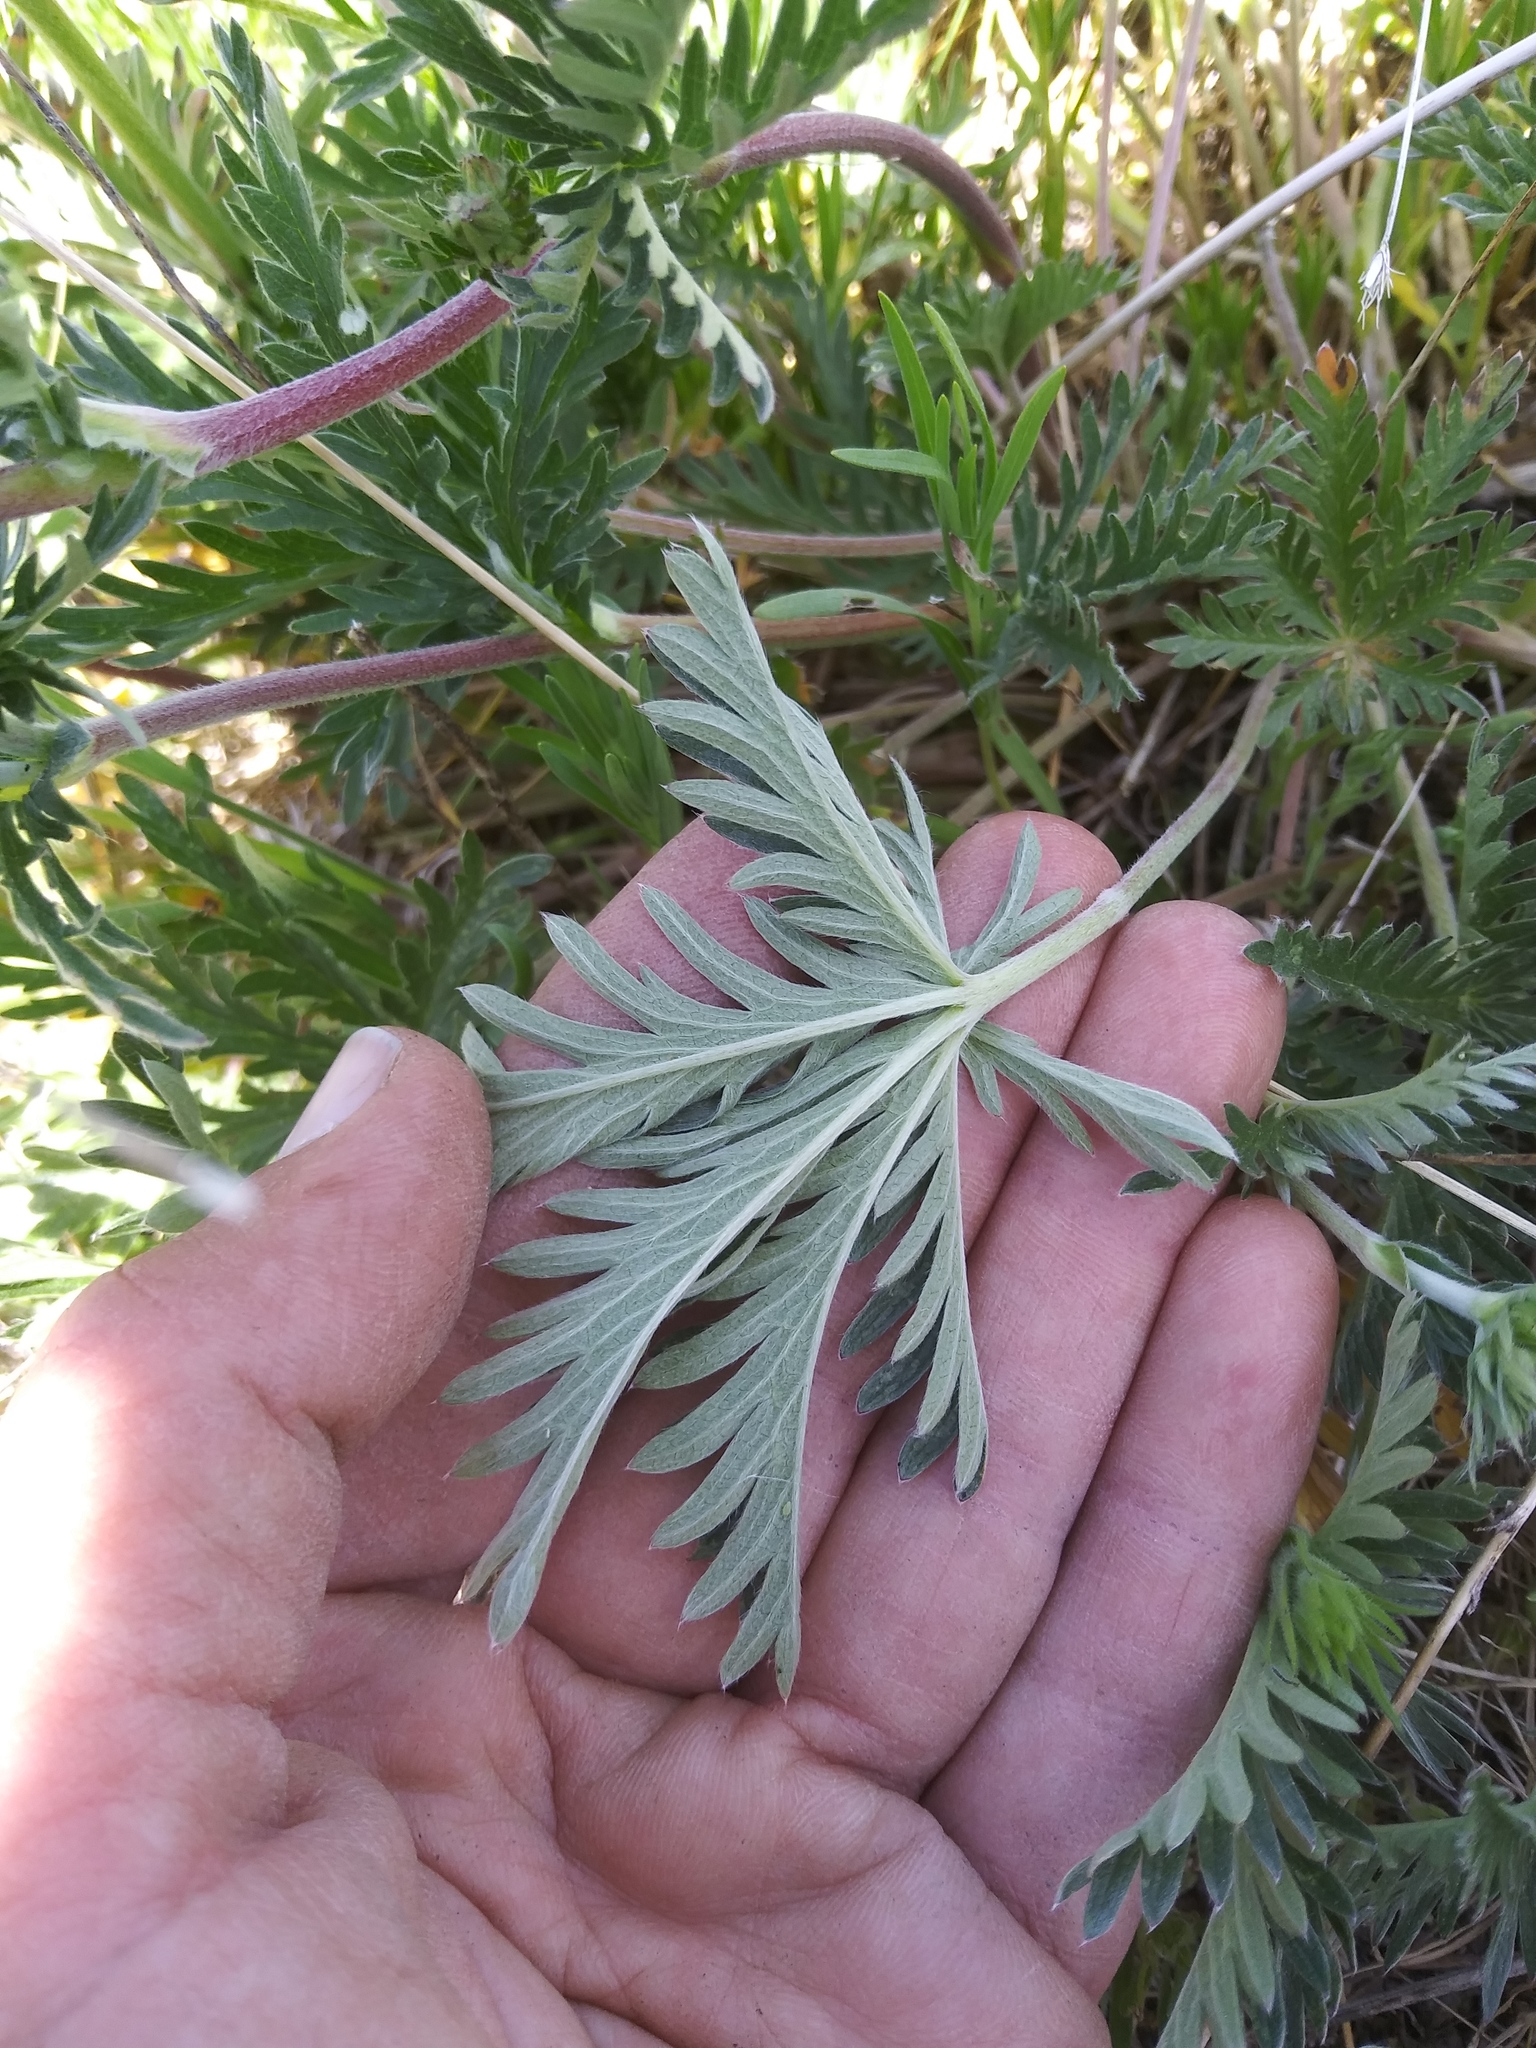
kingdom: Plantae
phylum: Tracheophyta
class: Magnoliopsida
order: Rosales
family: Rosaceae
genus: Potentilla
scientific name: Potentilla gracilis
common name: Graceful cinquefoil
